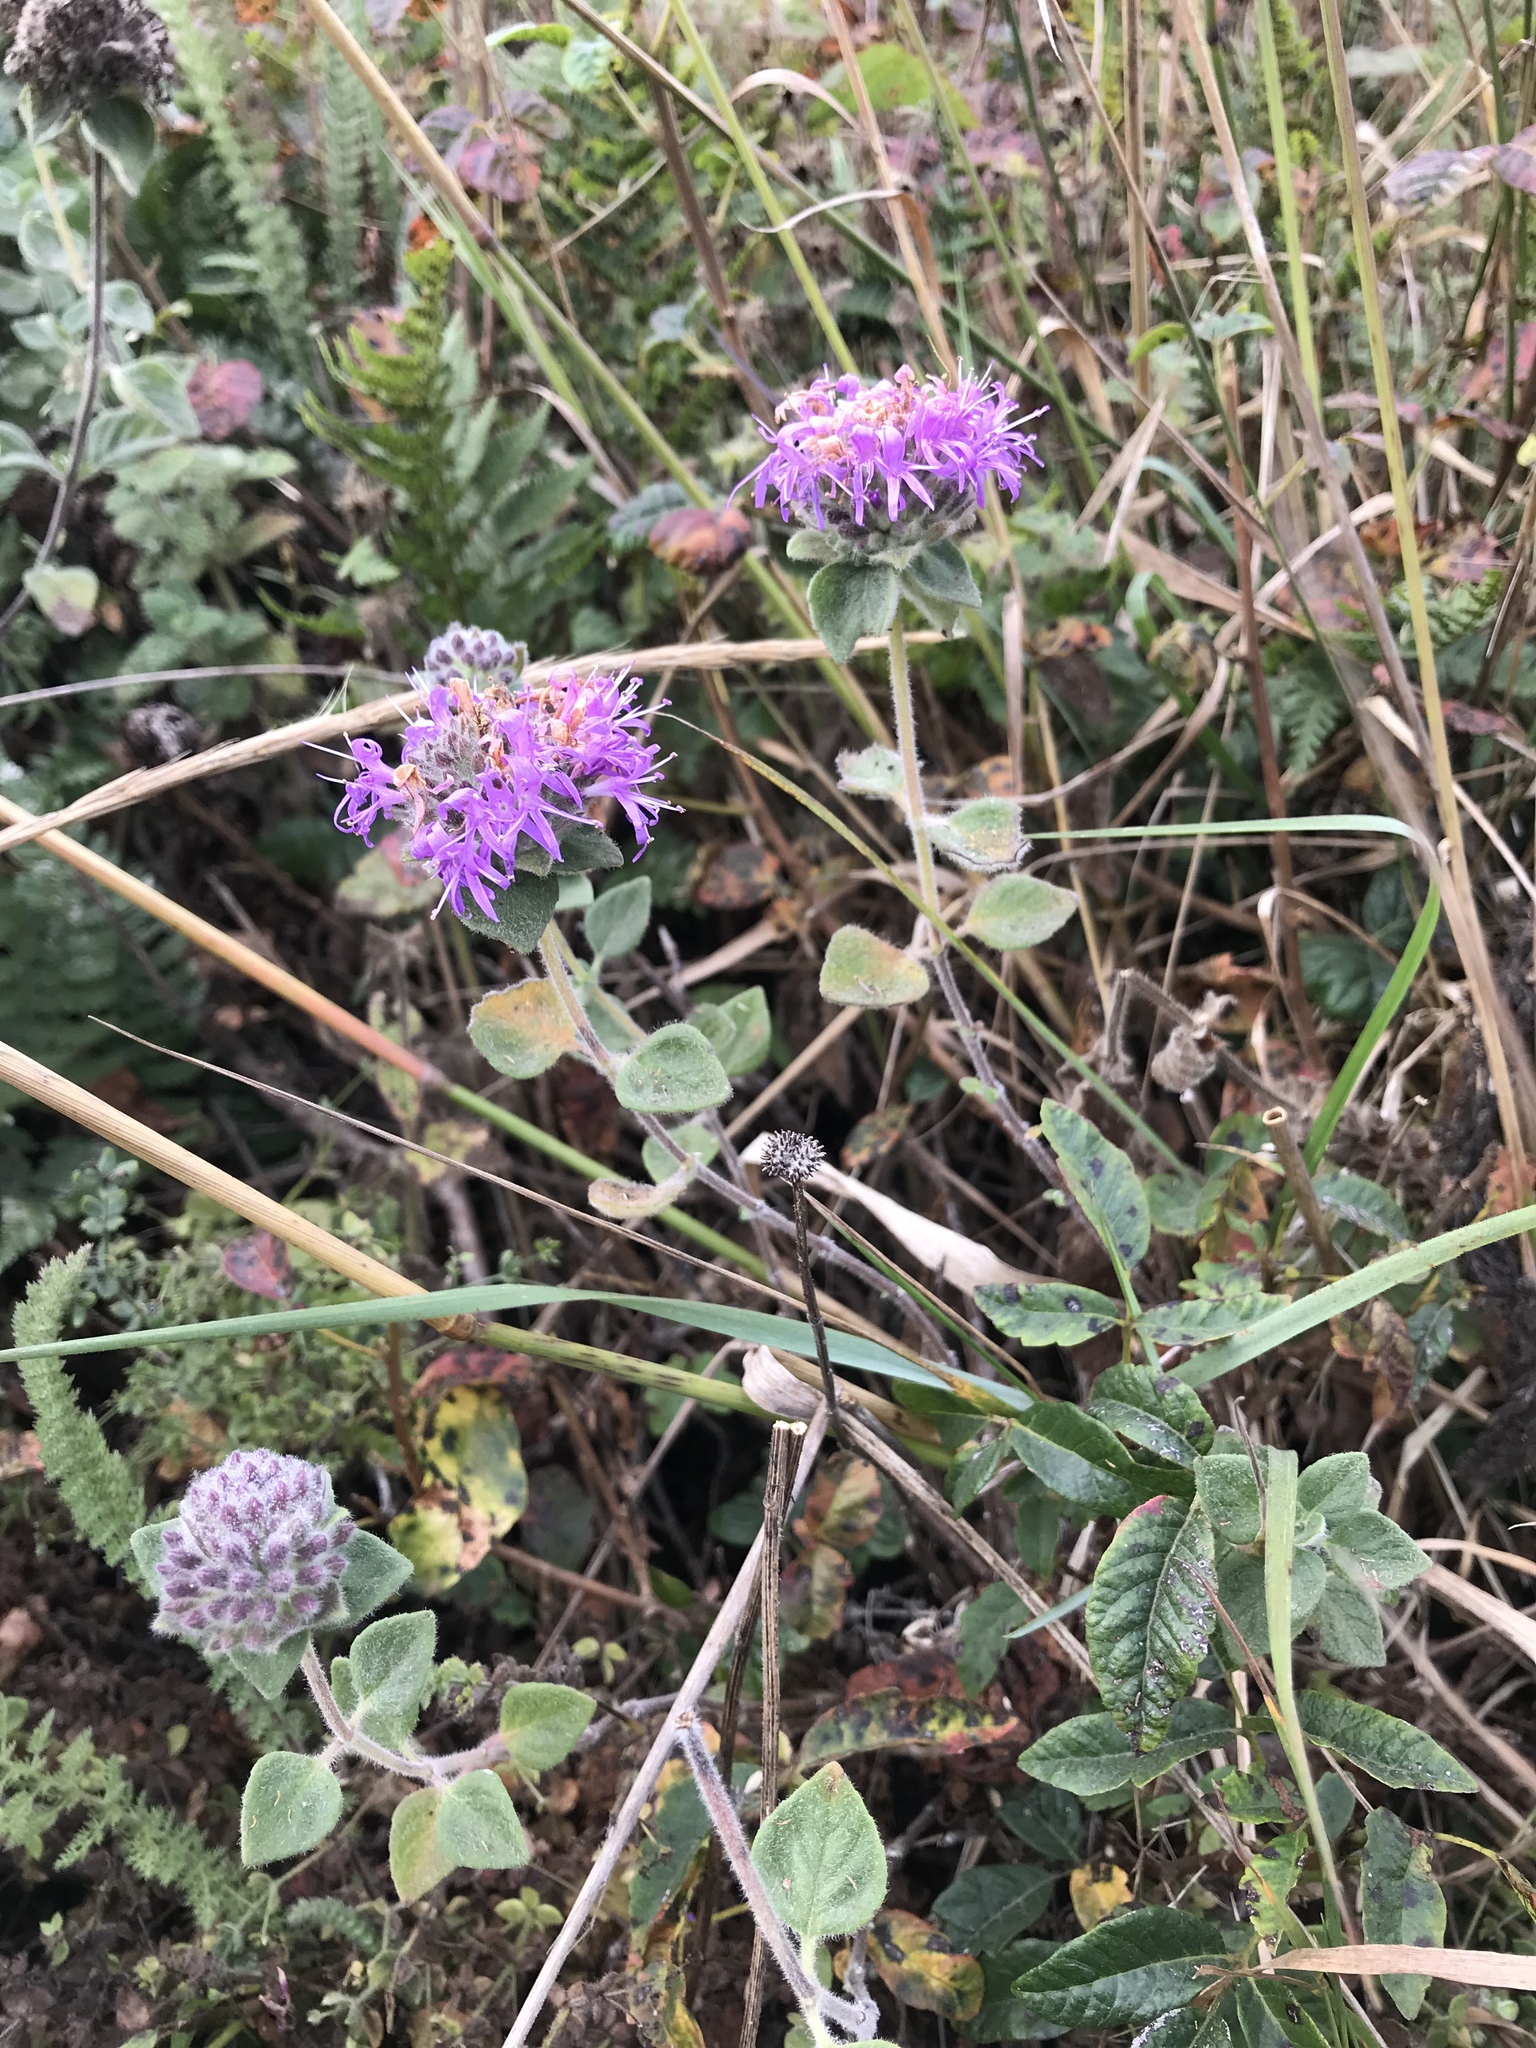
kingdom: Plantae
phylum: Tracheophyta
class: Magnoliopsida
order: Lamiales
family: Lamiaceae
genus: Monardella
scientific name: Monardella odoratissima
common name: Pacific monardella
